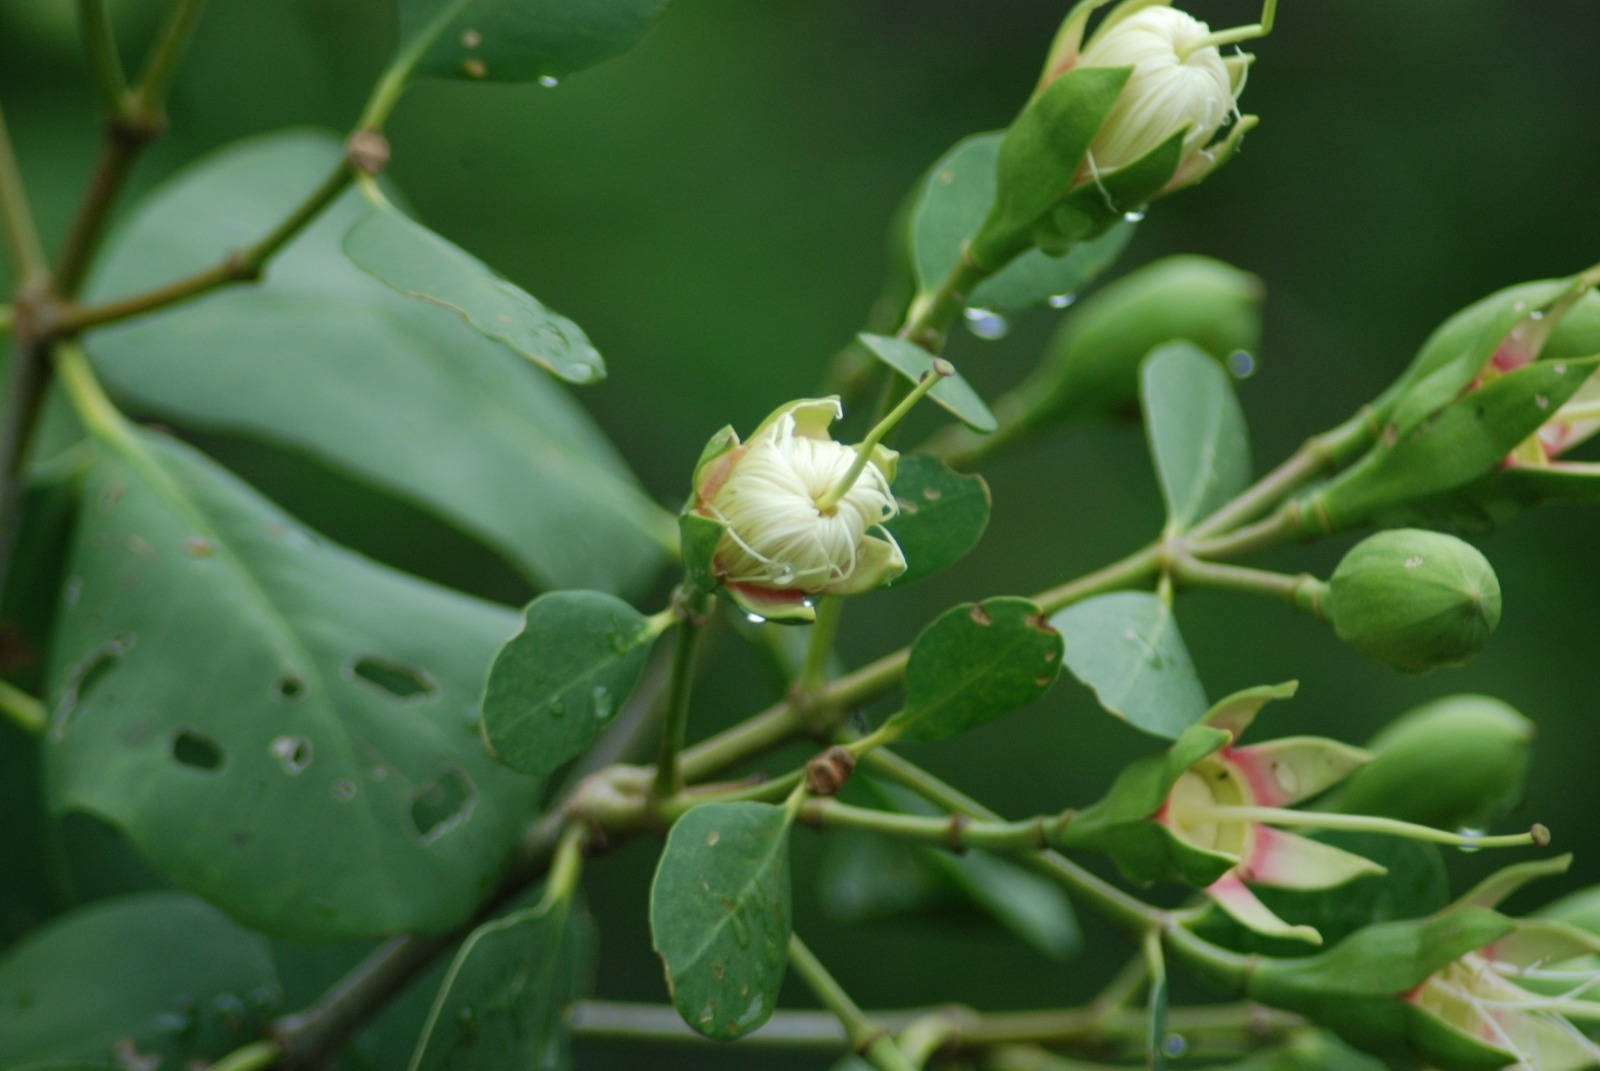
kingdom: Plantae
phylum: Tracheophyta
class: Magnoliopsida
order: Myrtales
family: Lythraceae
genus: Sonneratia
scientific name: Sonneratia alba
